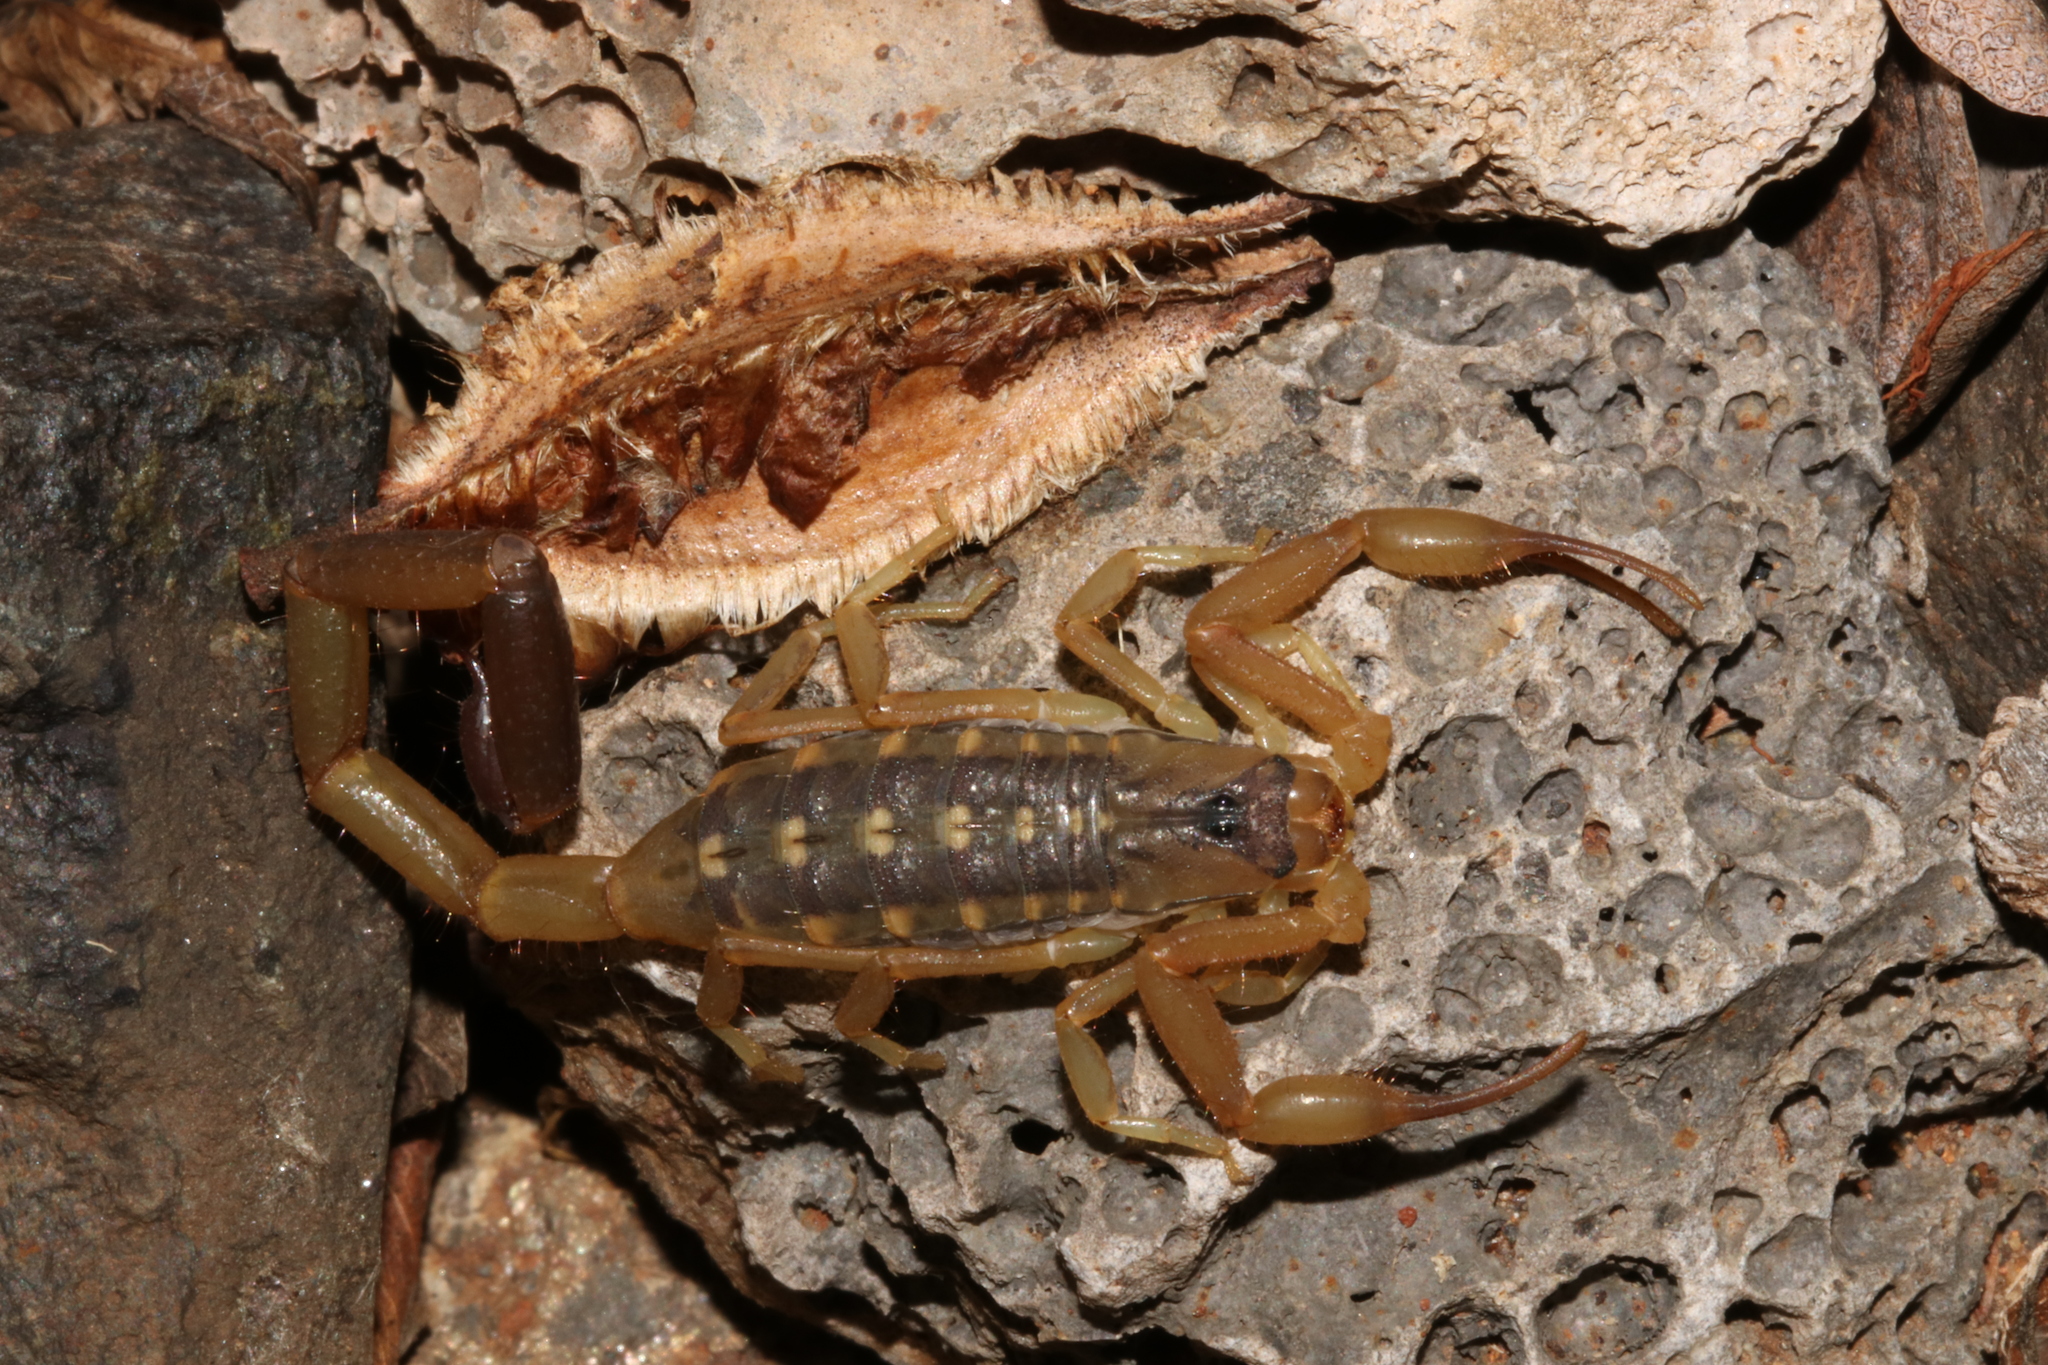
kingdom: Animalia
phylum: Arthropoda
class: Arachnida
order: Scorpiones
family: Buthidae
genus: Uroplectes
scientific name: Uroplectes vittatus
